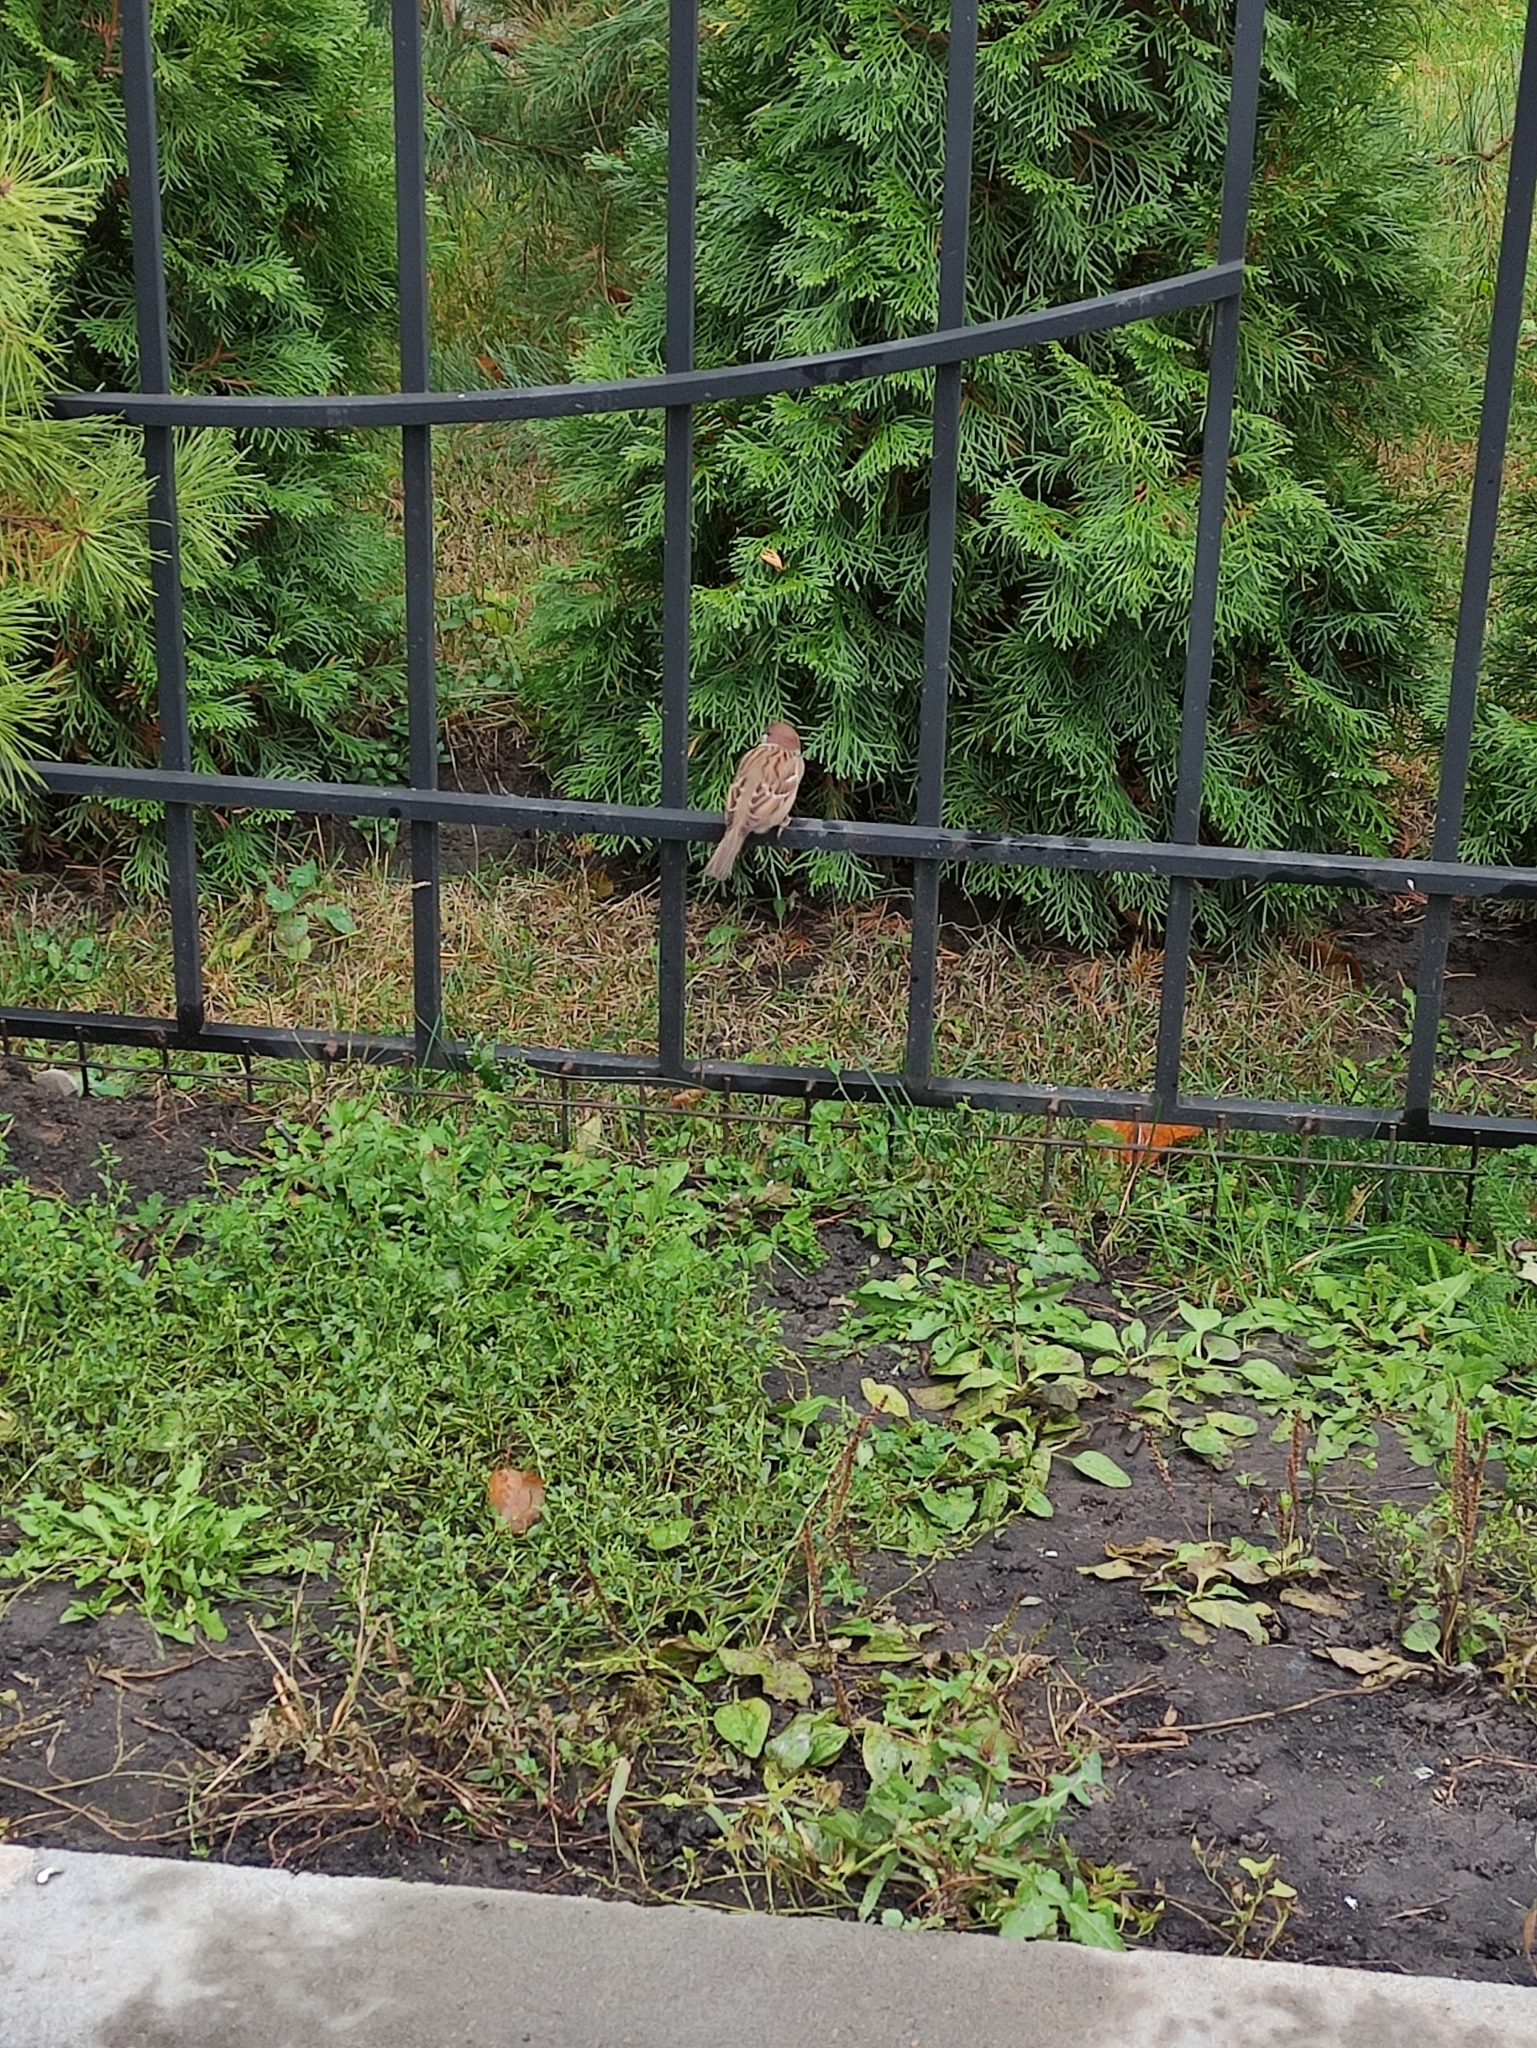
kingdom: Animalia
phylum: Chordata
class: Aves
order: Passeriformes
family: Passeridae
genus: Passer
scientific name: Passer montanus
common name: Eurasian tree sparrow
